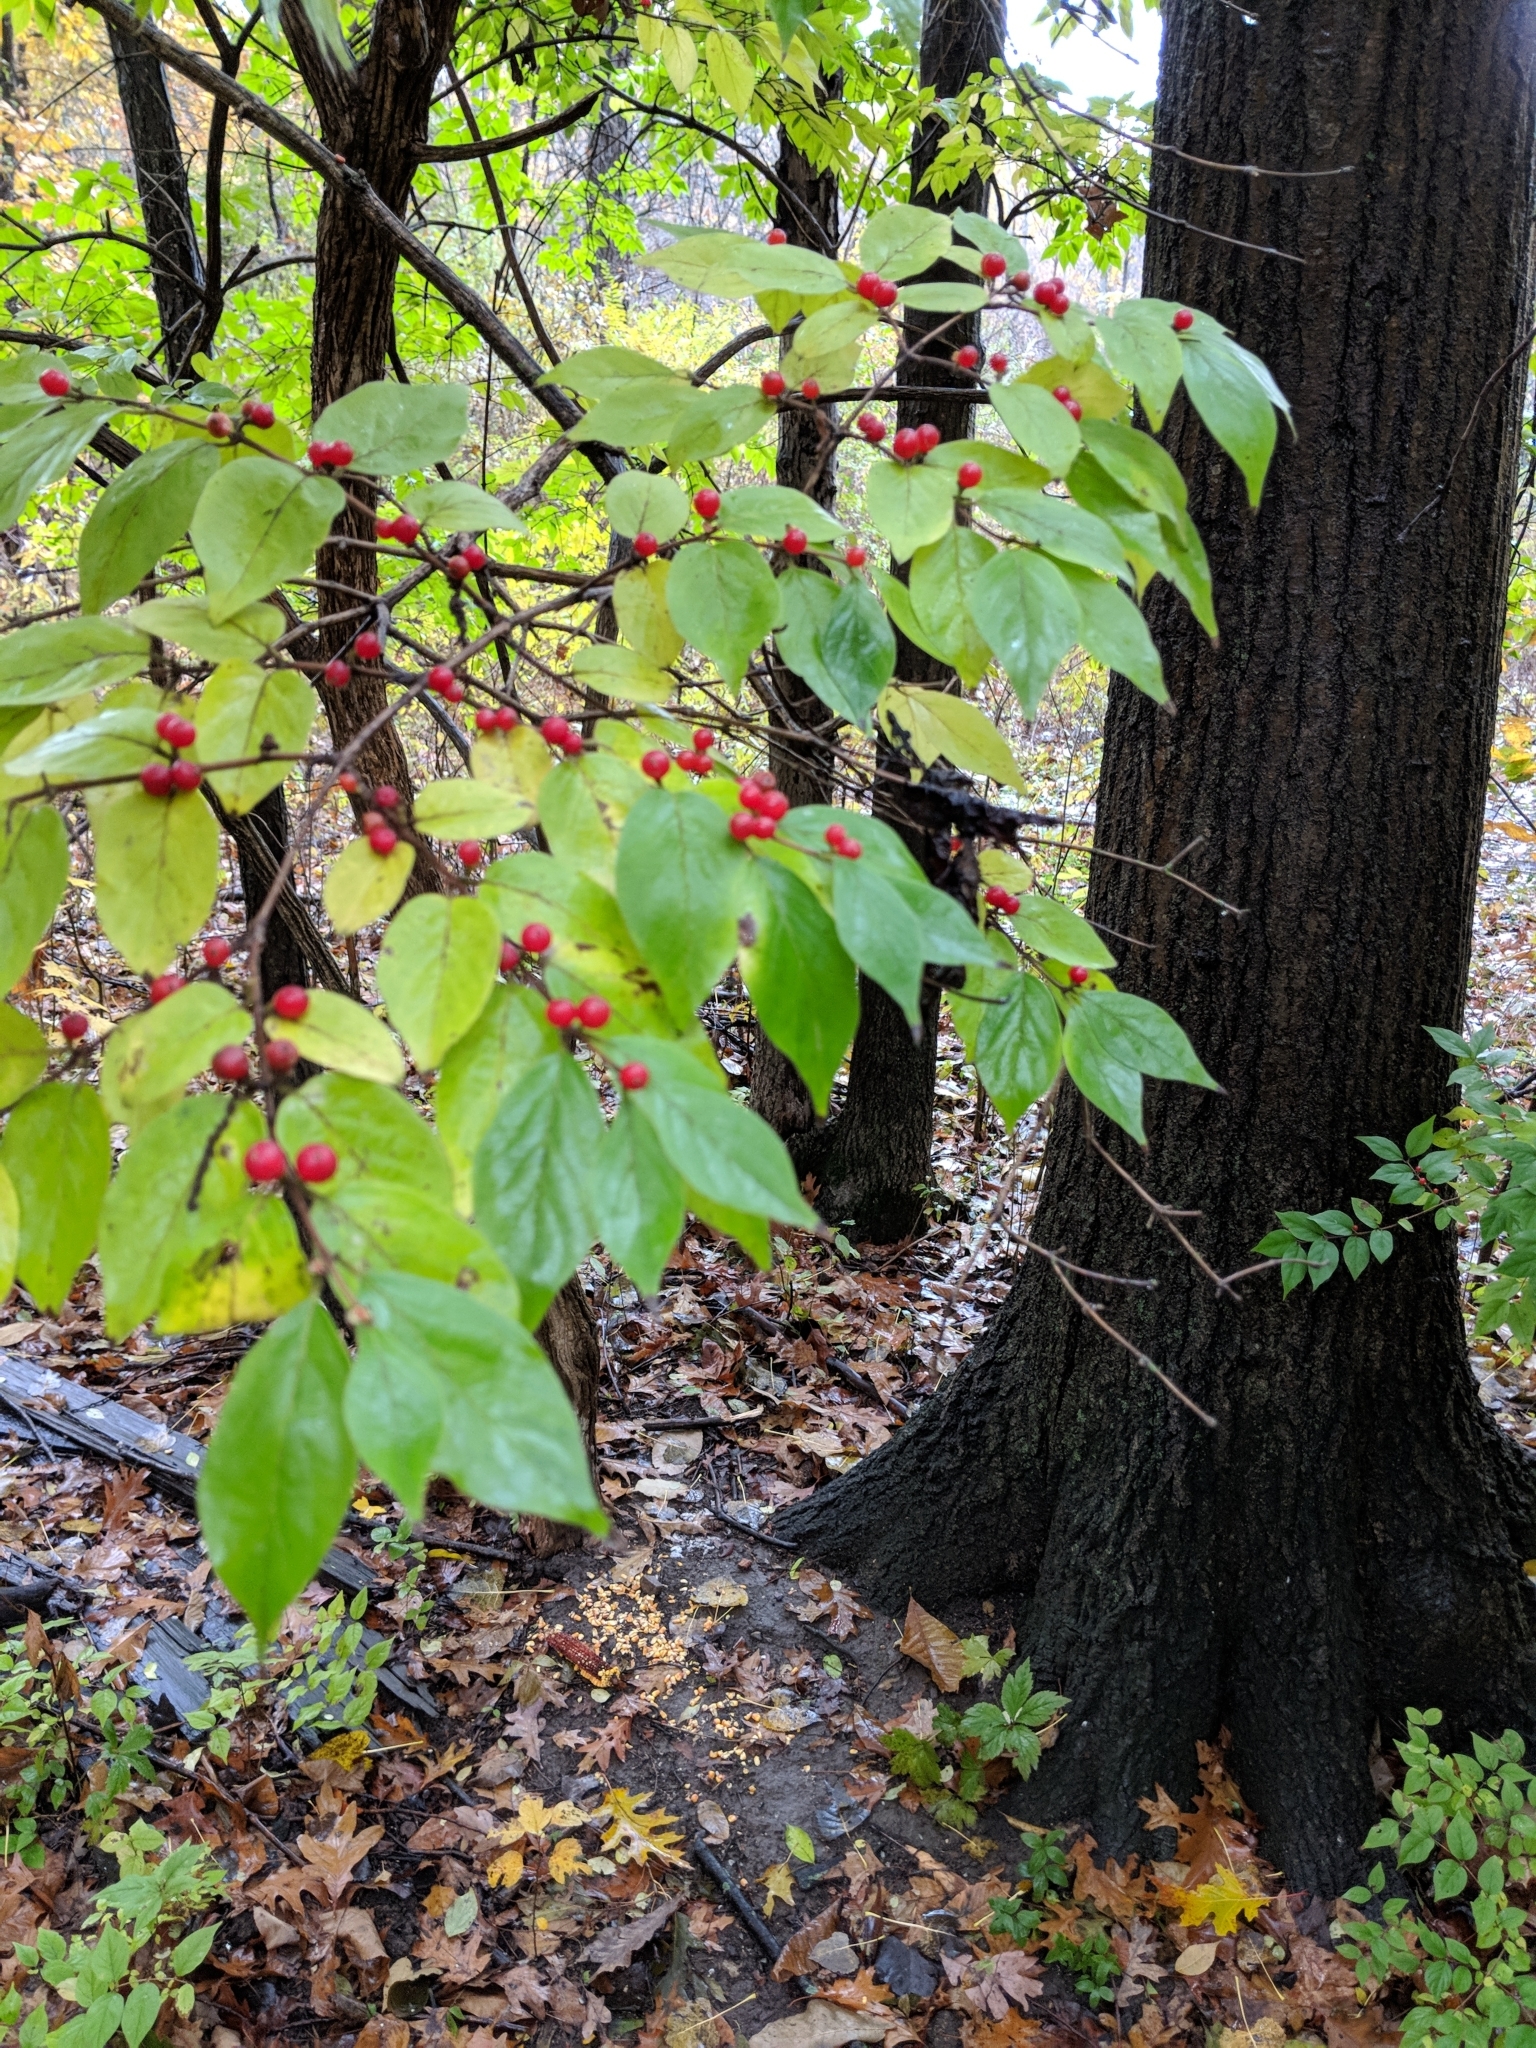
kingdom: Plantae
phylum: Tracheophyta
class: Magnoliopsida
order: Dipsacales
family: Caprifoliaceae
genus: Lonicera
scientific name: Lonicera maackii
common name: Amur honeysuckle
